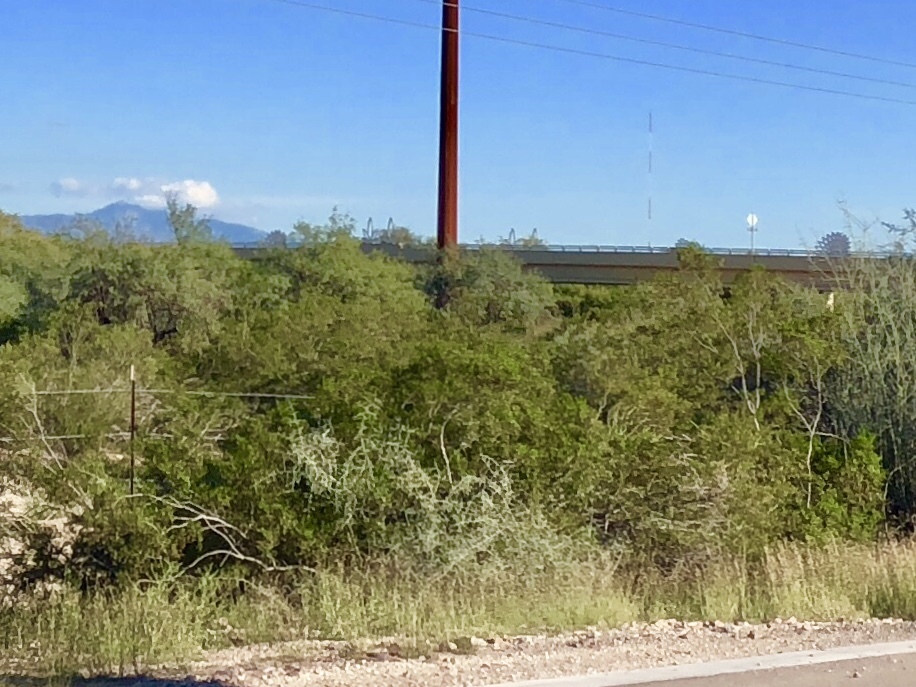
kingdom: Plantae
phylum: Tracheophyta
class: Magnoliopsida
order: Zygophyllales
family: Zygophyllaceae
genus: Larrea
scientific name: Larrea tridentata
